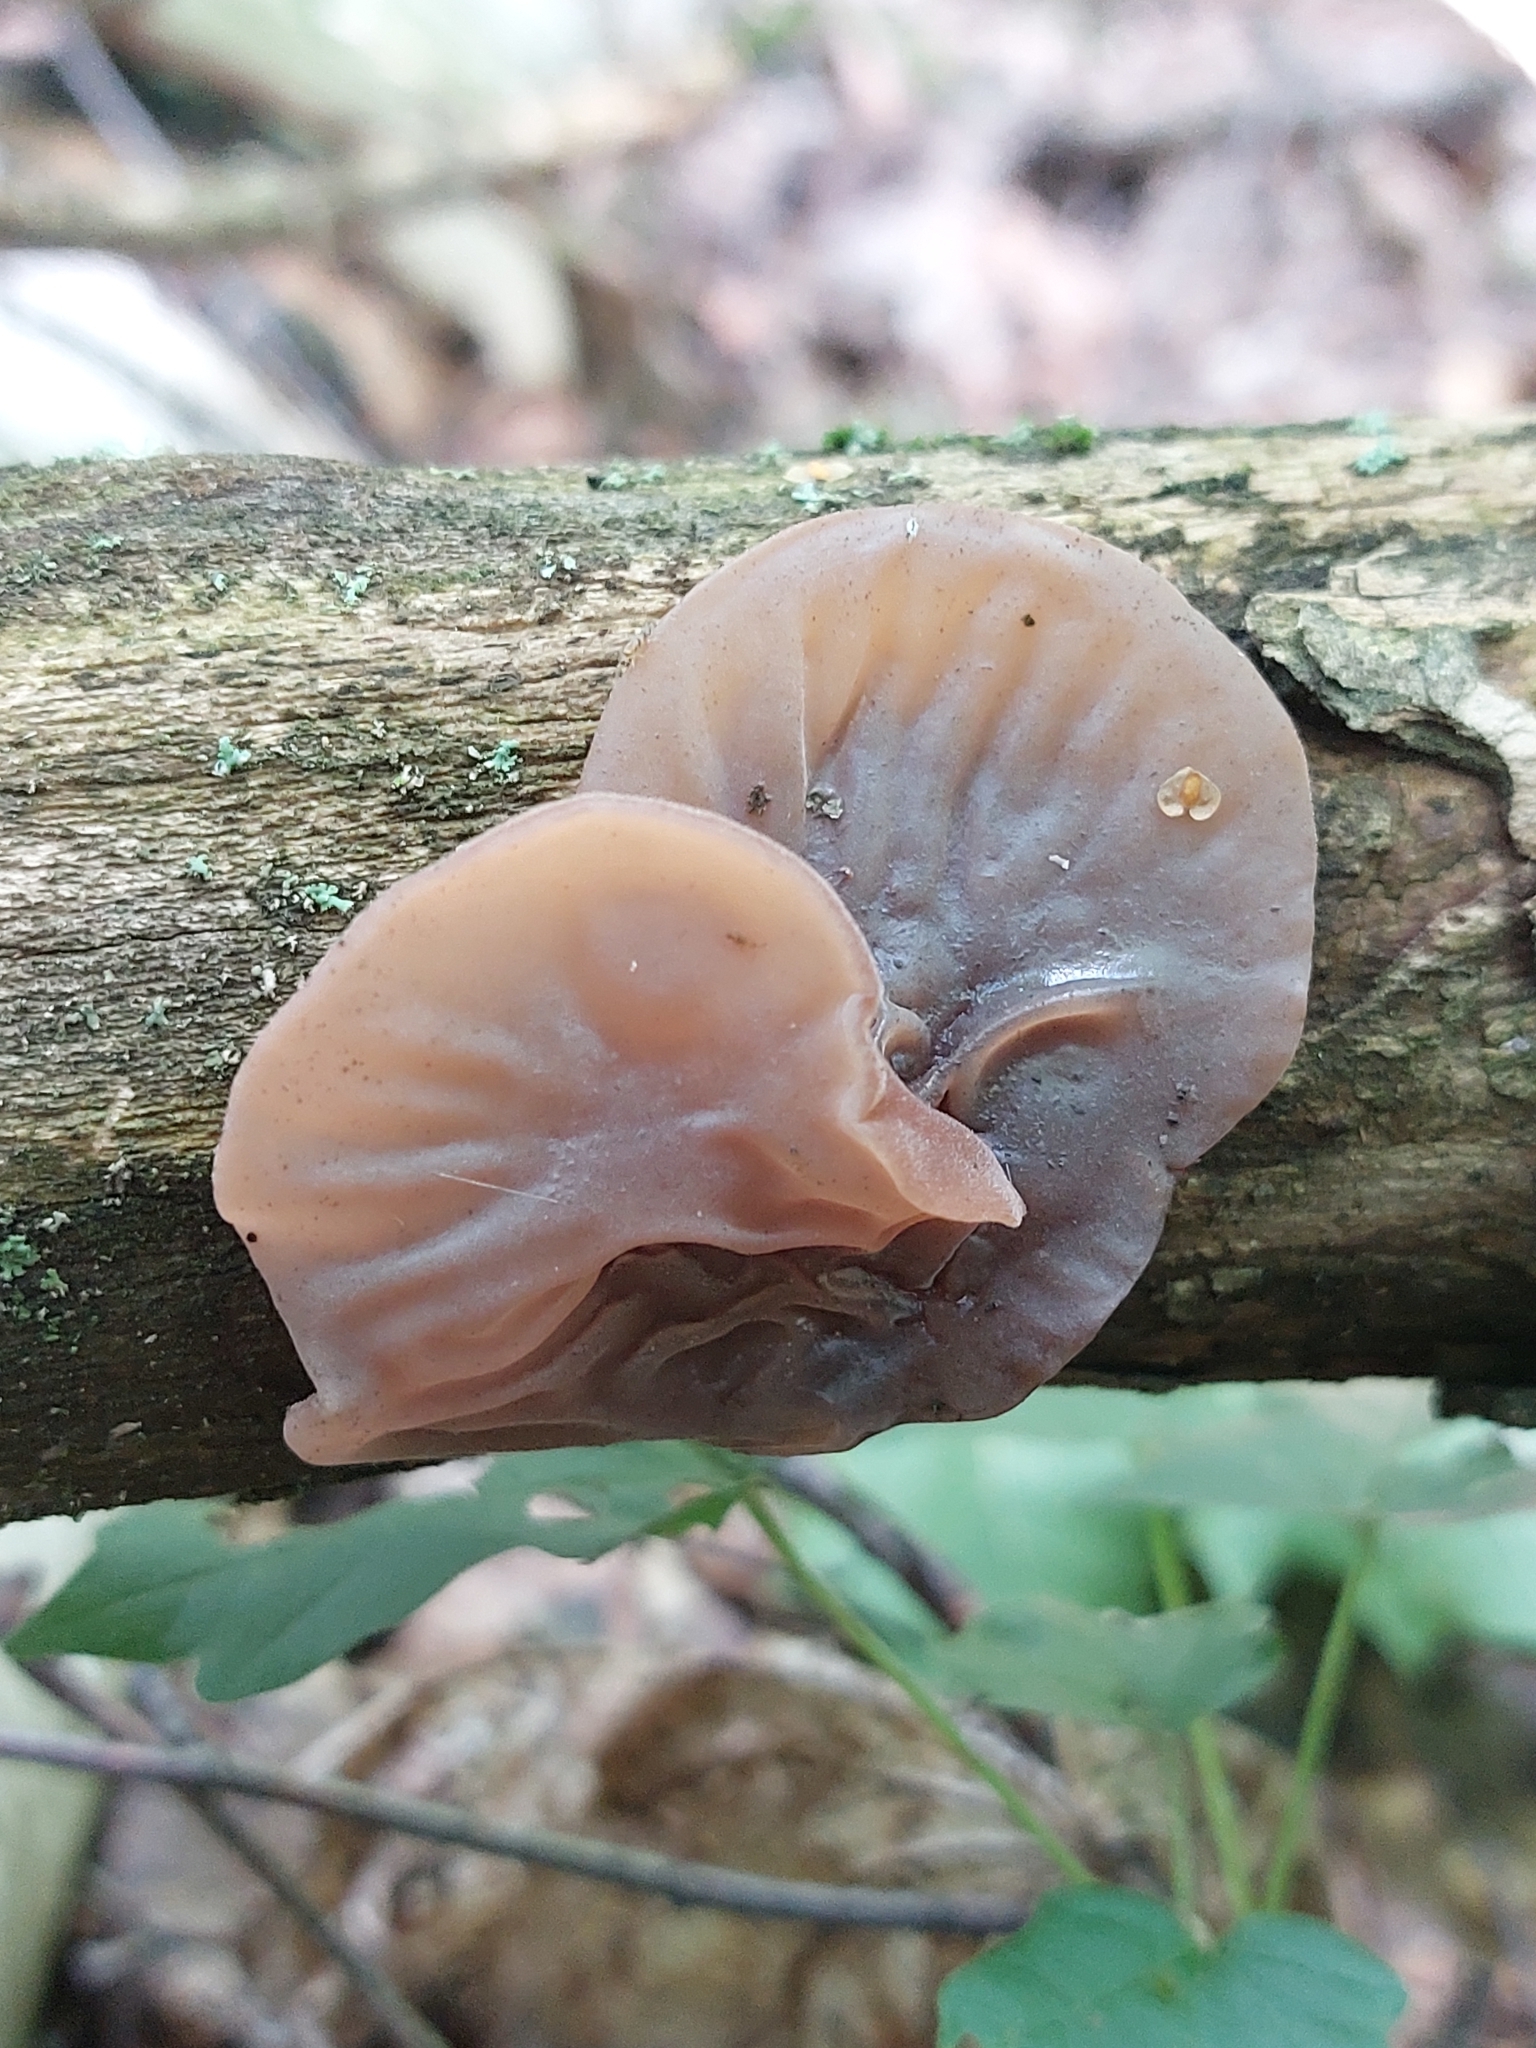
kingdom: Fungi
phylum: Basidiomycota
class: Agaricomycetes
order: Auriculariales
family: Auriculariaceae
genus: Auricularia
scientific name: Auricularia auricula-judae
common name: Jelly ear
